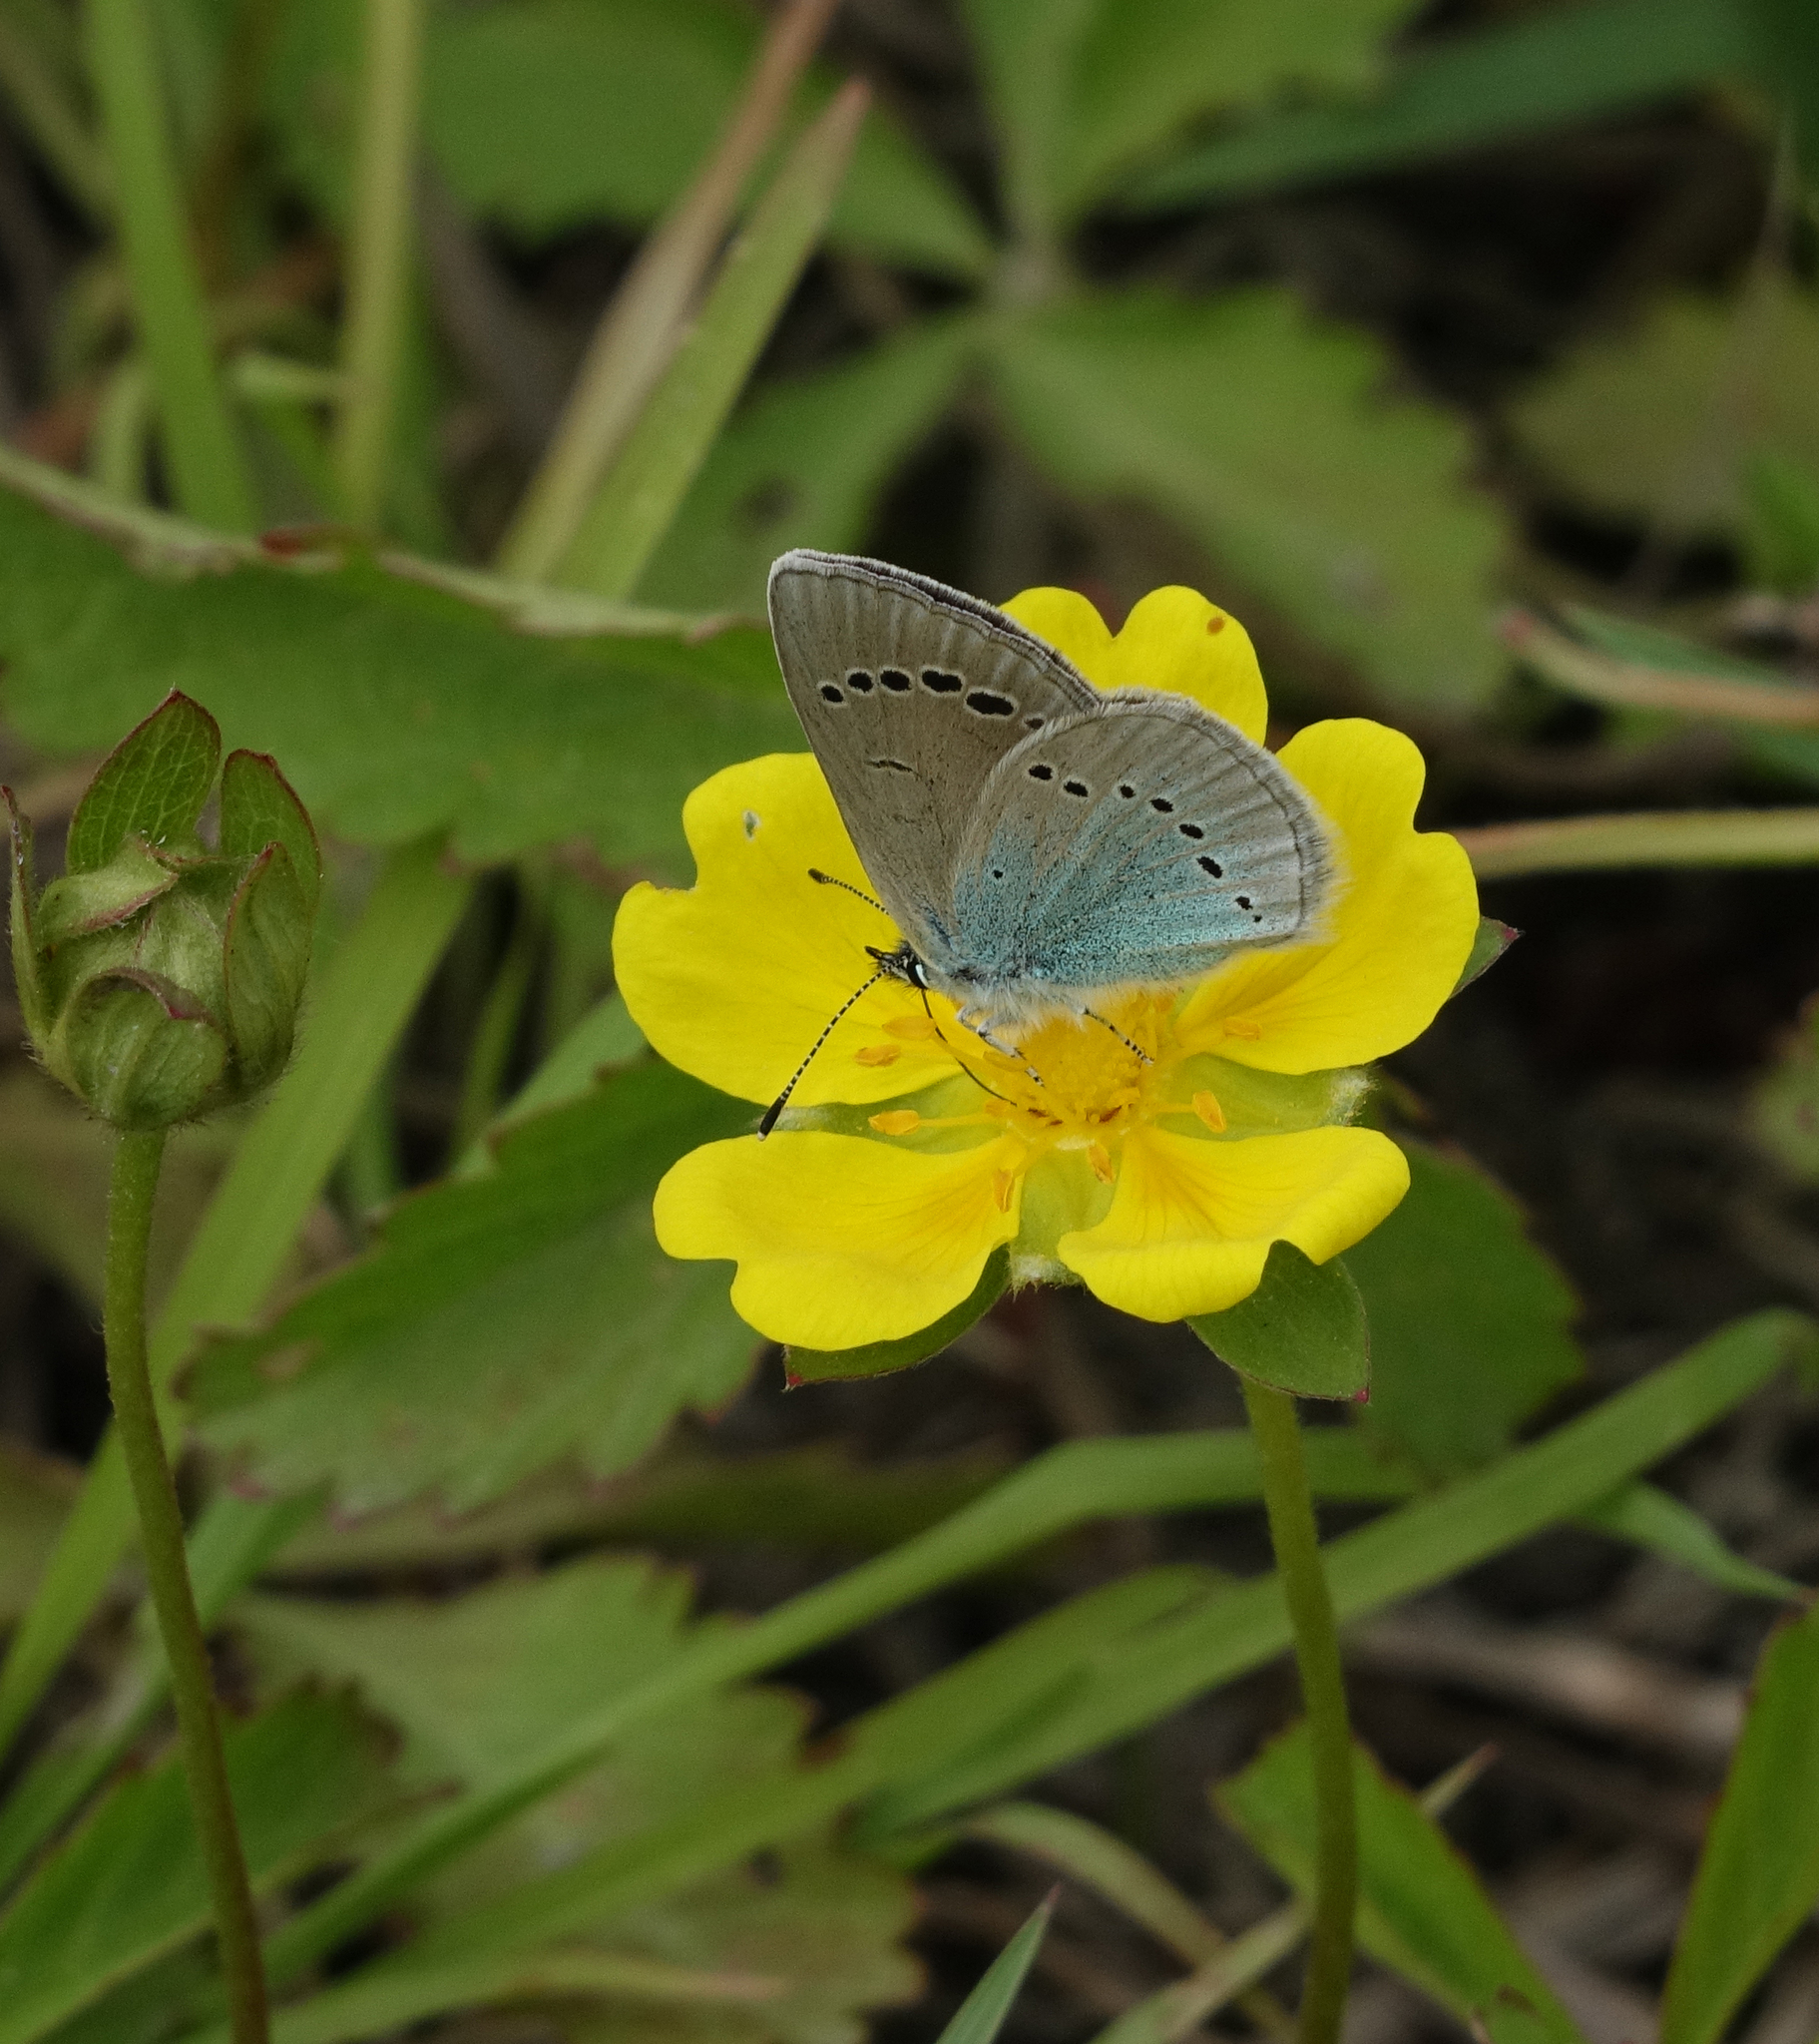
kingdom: Animalia
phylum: Arthropoda
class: Insecta
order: Lepidoptera
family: Lycaenidae
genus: Glaucopsyche
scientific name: Glaucopsyche alexis
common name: Green-underside blue
